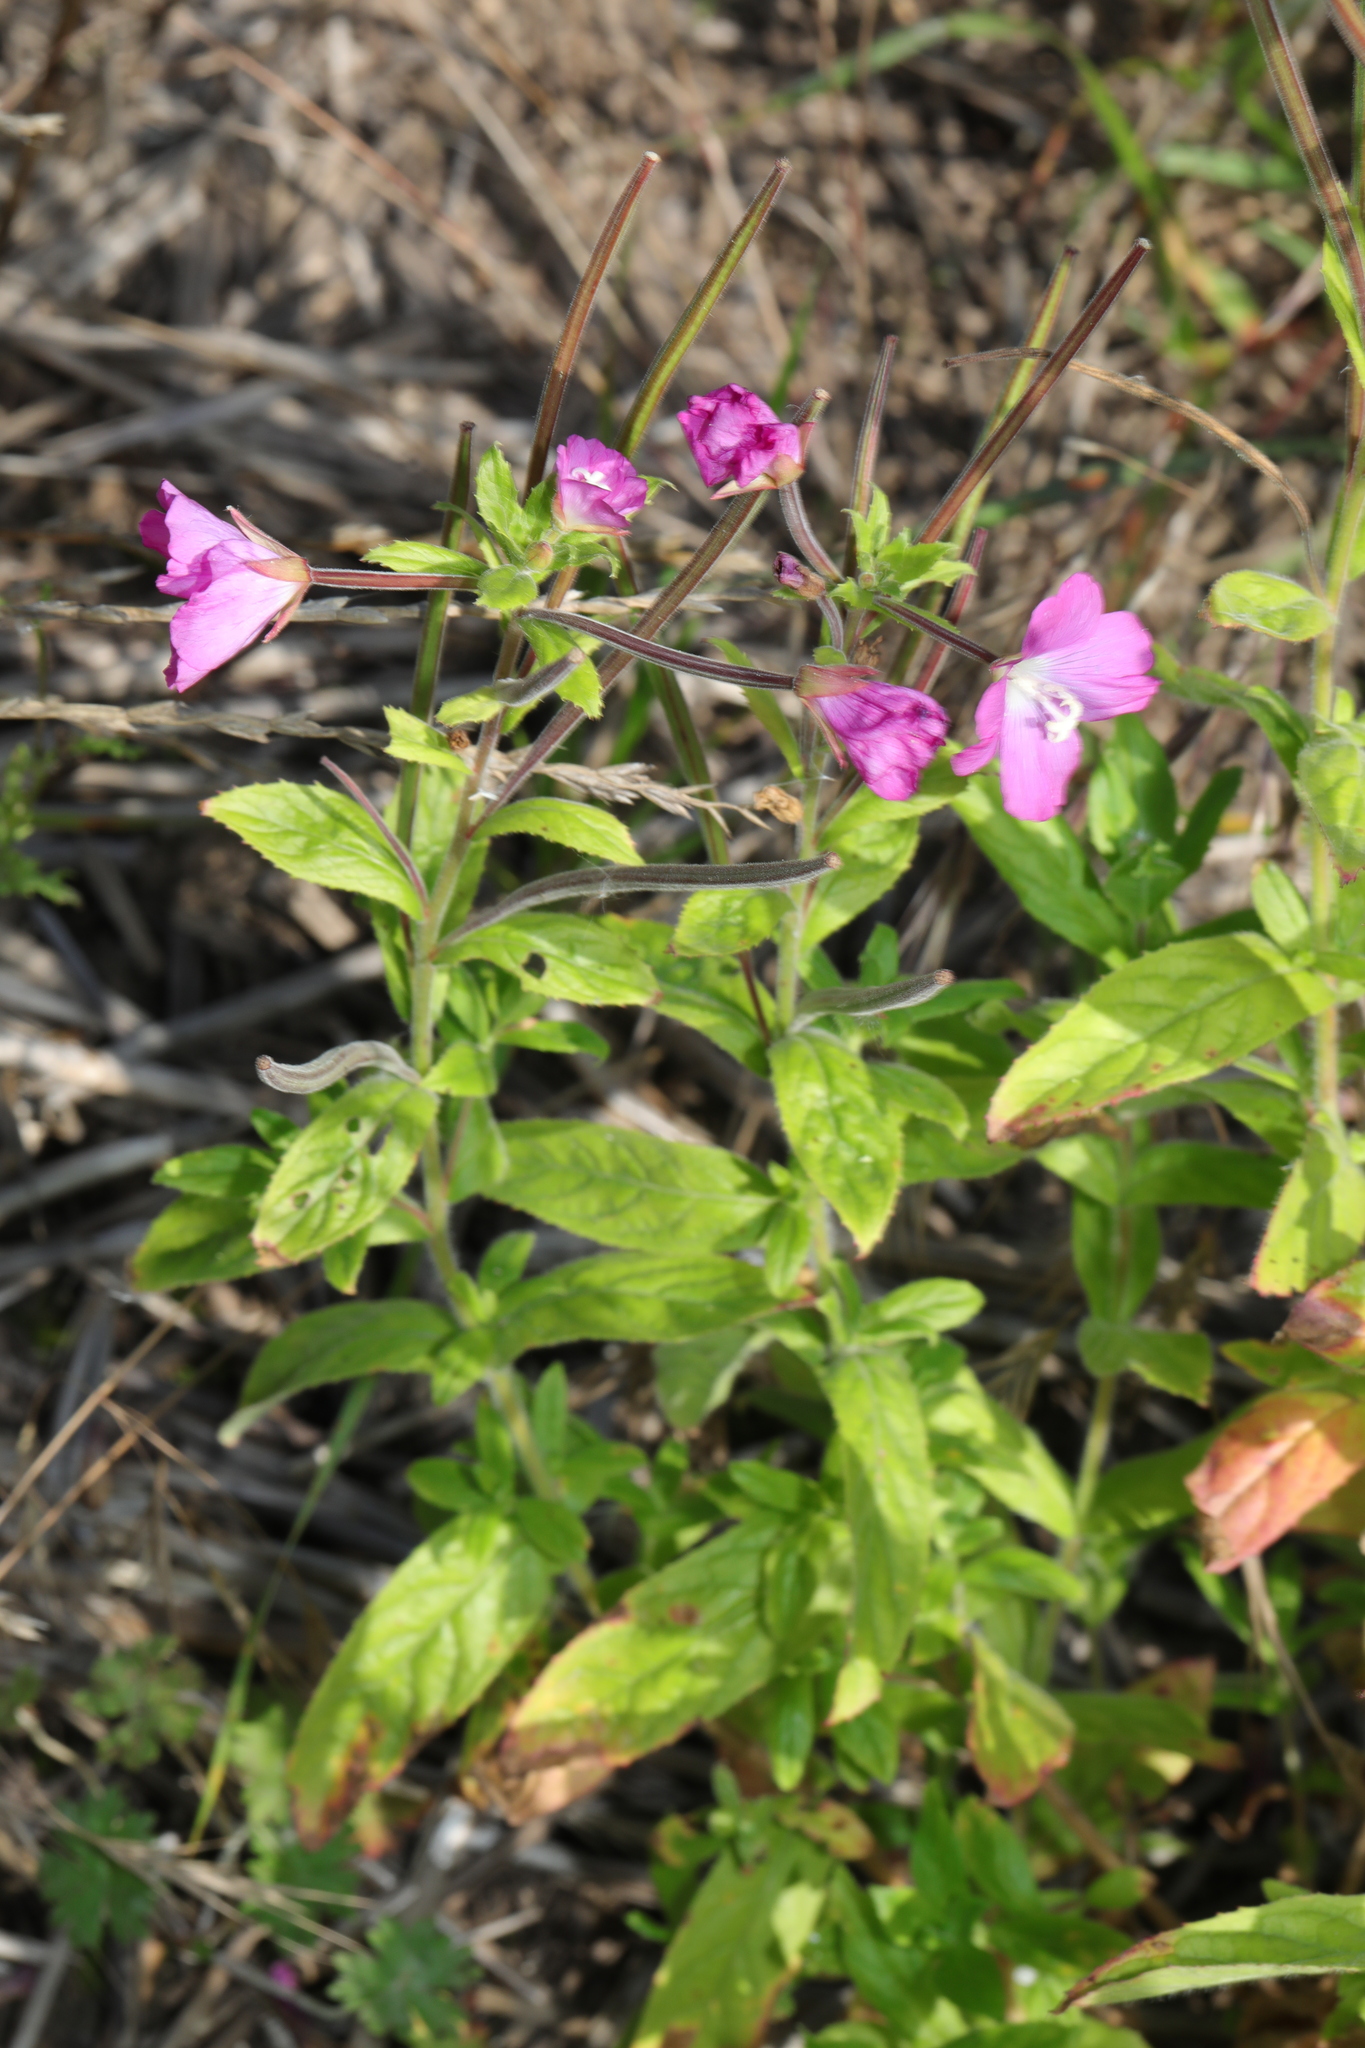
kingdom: Plantae
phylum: Tracheophyta
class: Magnoliopsida
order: Myrtales
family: Onagraceae
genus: Epilobium
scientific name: Epilobium hirsutum
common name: Great willowherb
